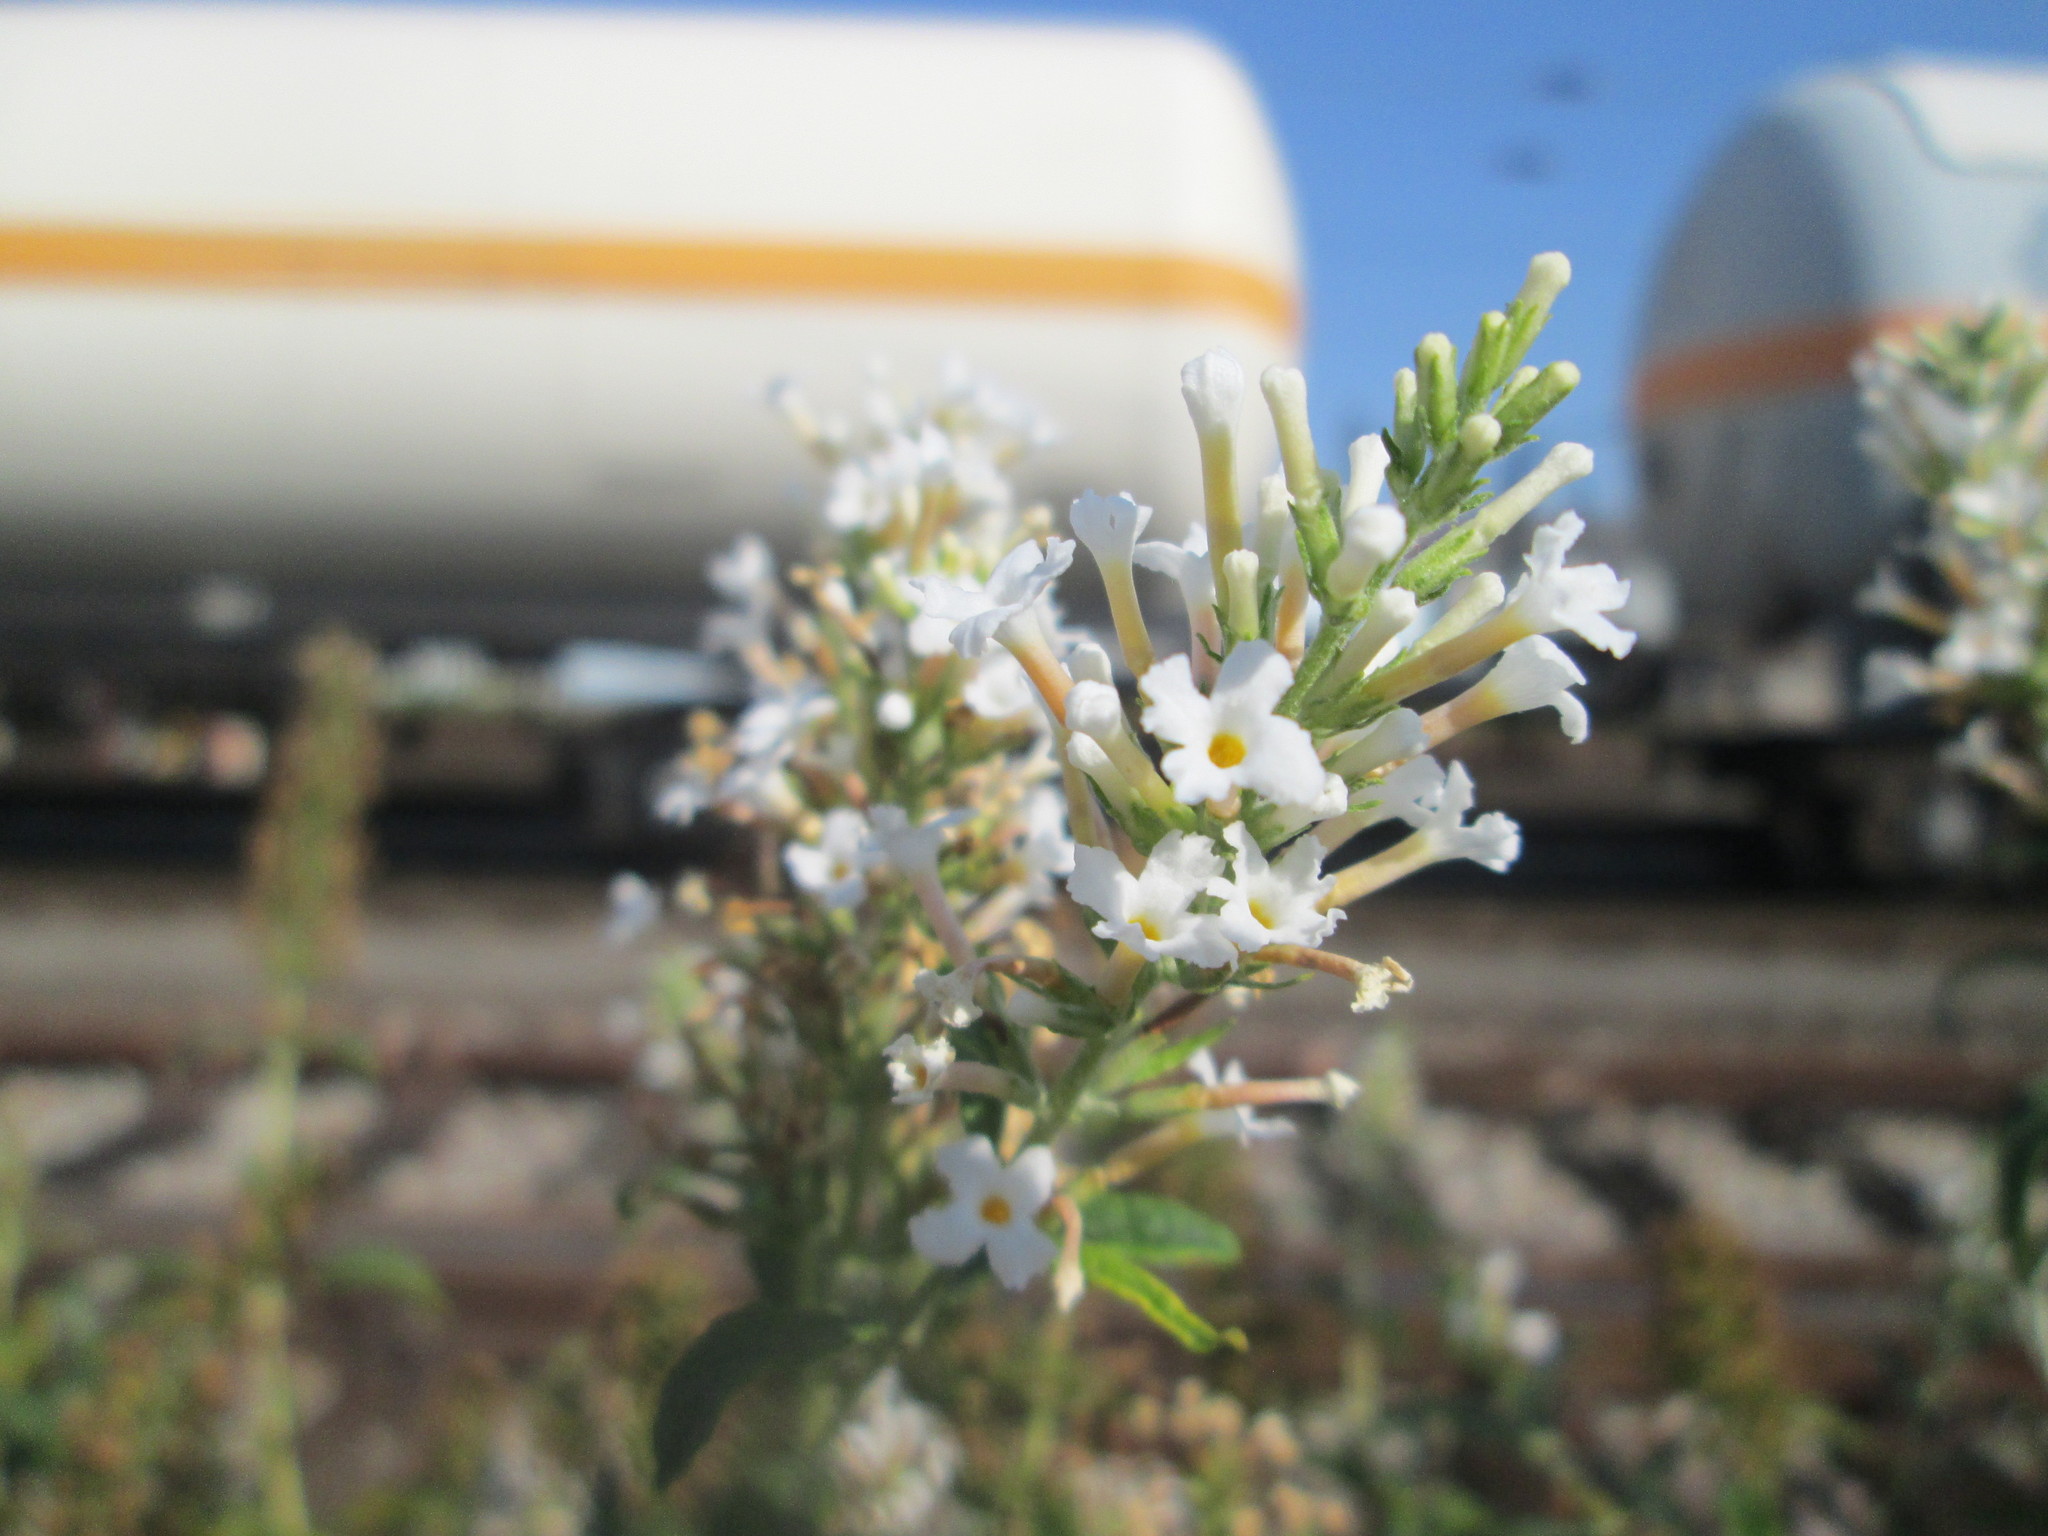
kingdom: Plantae
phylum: Tracheophyta
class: Magnoliopsida
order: Lamiales
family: Scrophulariaceae
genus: Buddleja
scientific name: Buddleja davidii
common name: Butterfly-bush
